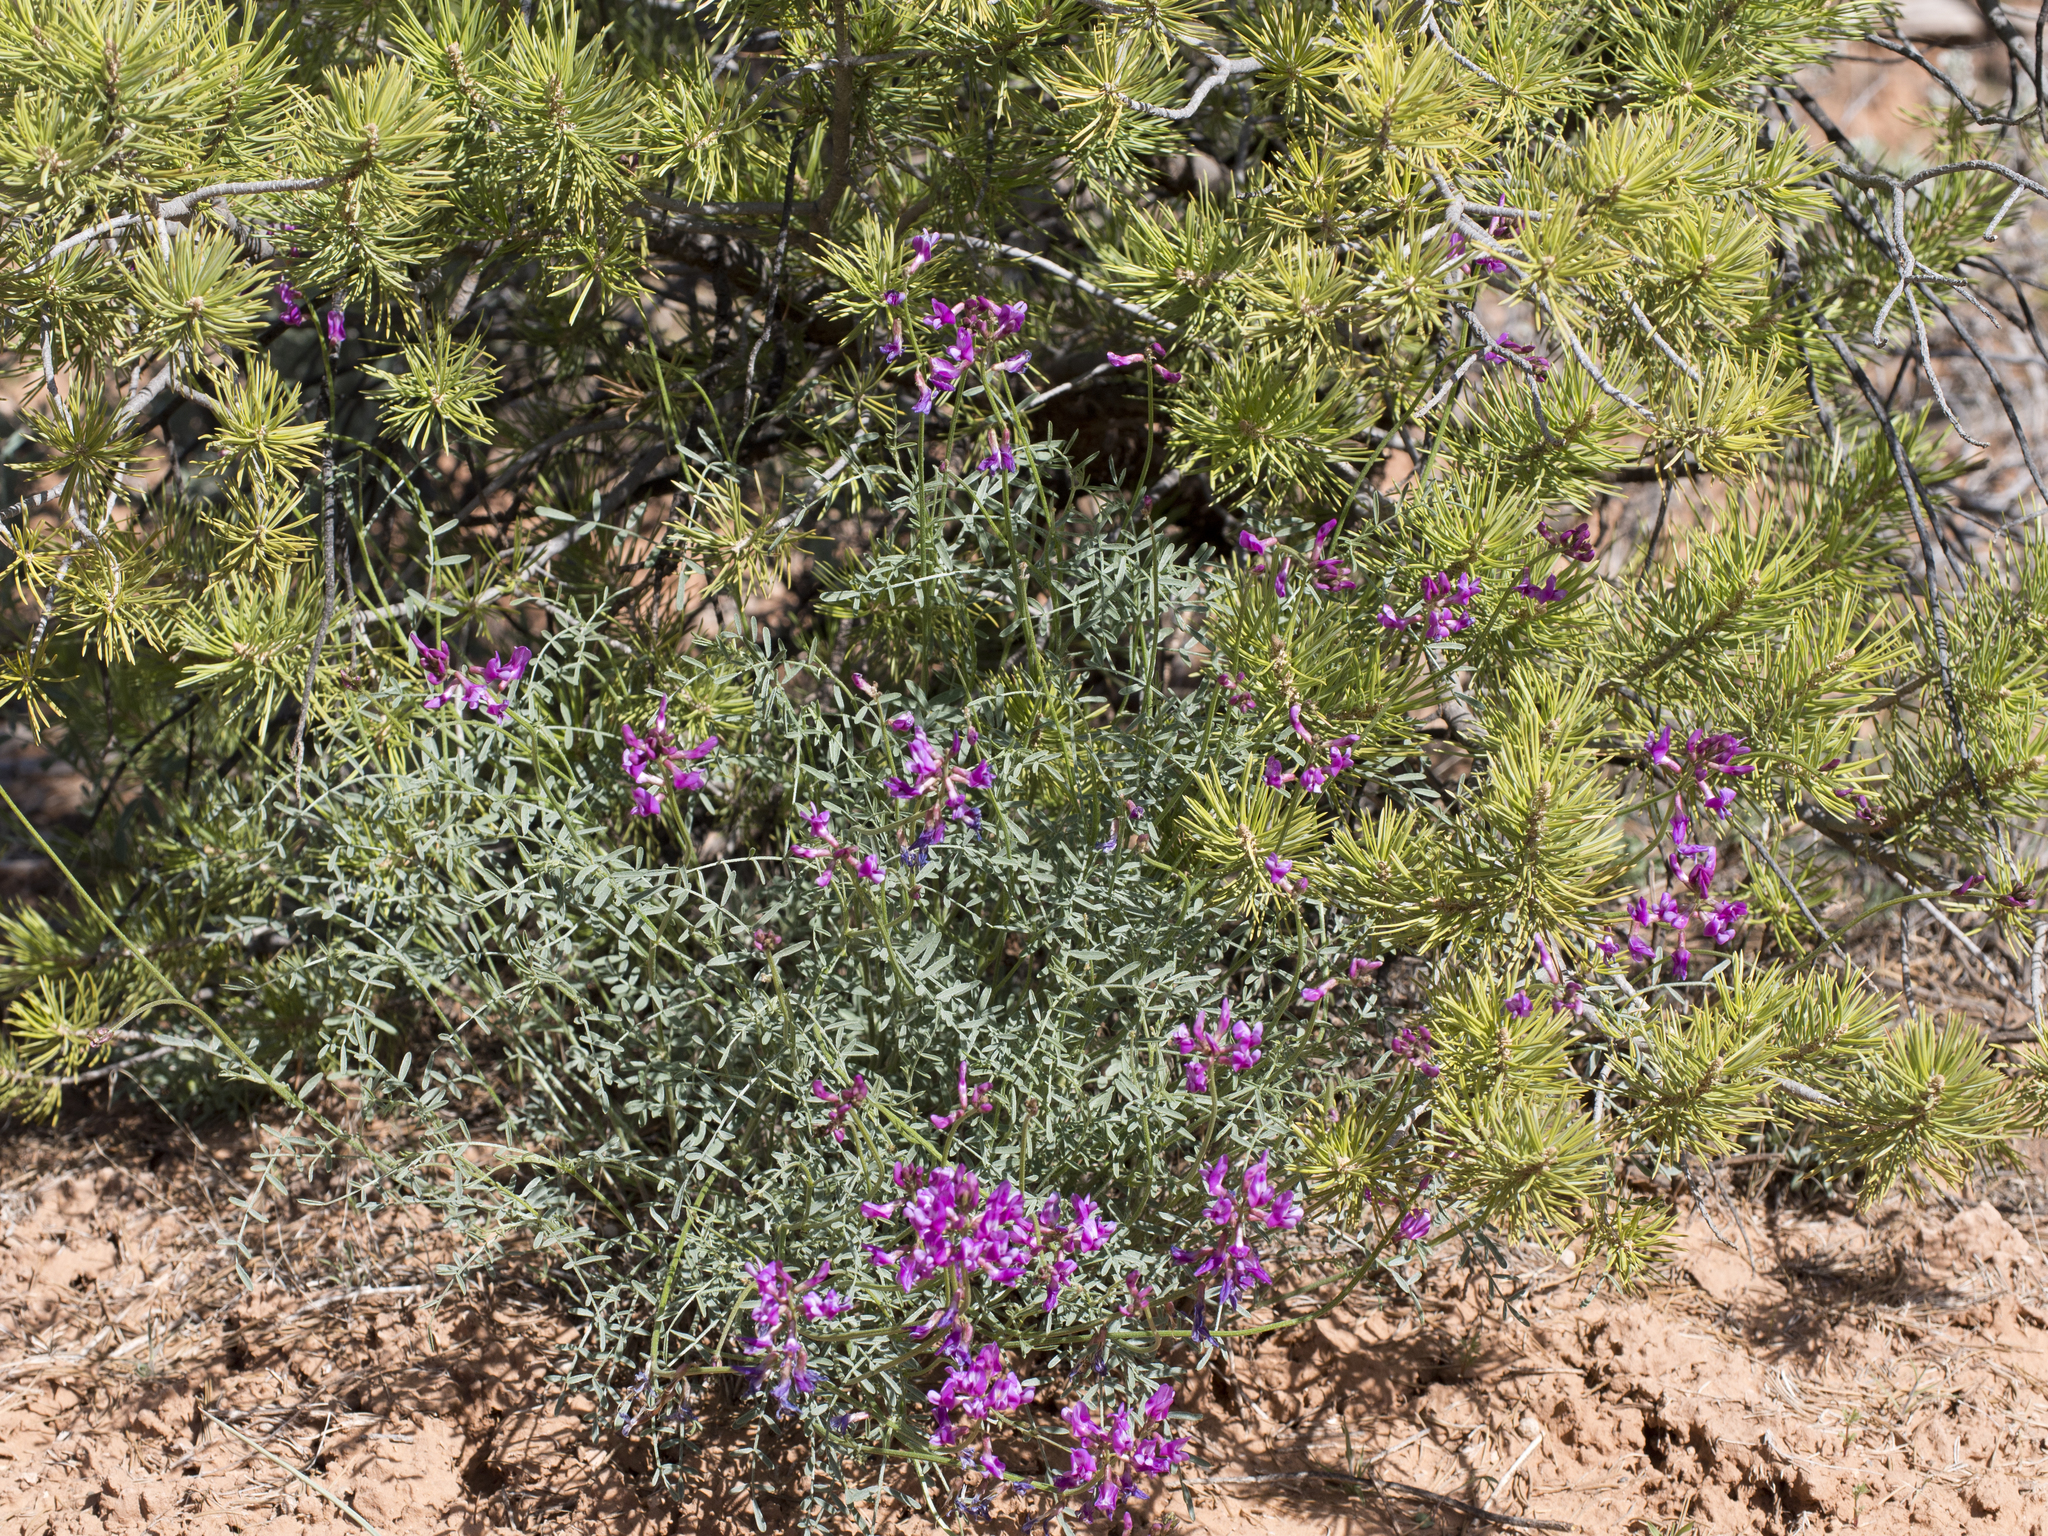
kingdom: Plantae
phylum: Tracheophyta
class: Magnoliopsida
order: Fabales
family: Fabaceae
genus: Astragalus
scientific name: Astragalus coltonii
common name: Colton's milkvetch
